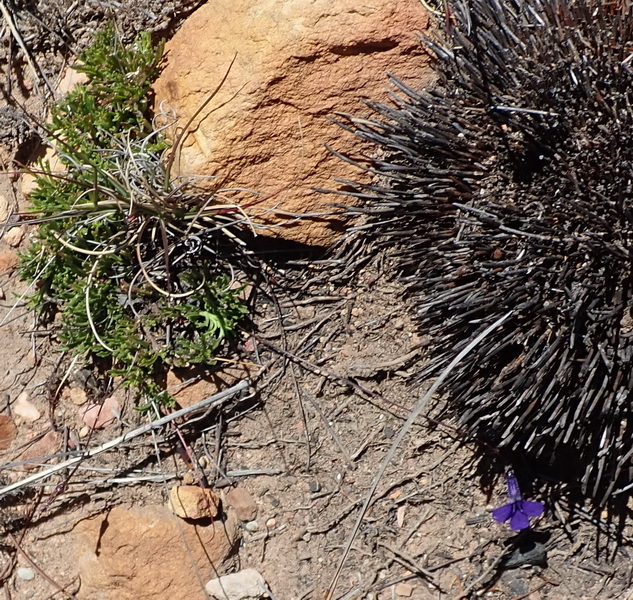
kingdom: Plantae
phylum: Tracheophyta
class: Magnoliopsida
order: Asterales
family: Campanulaceae
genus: Lobelia
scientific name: Lobelia tomentosa
